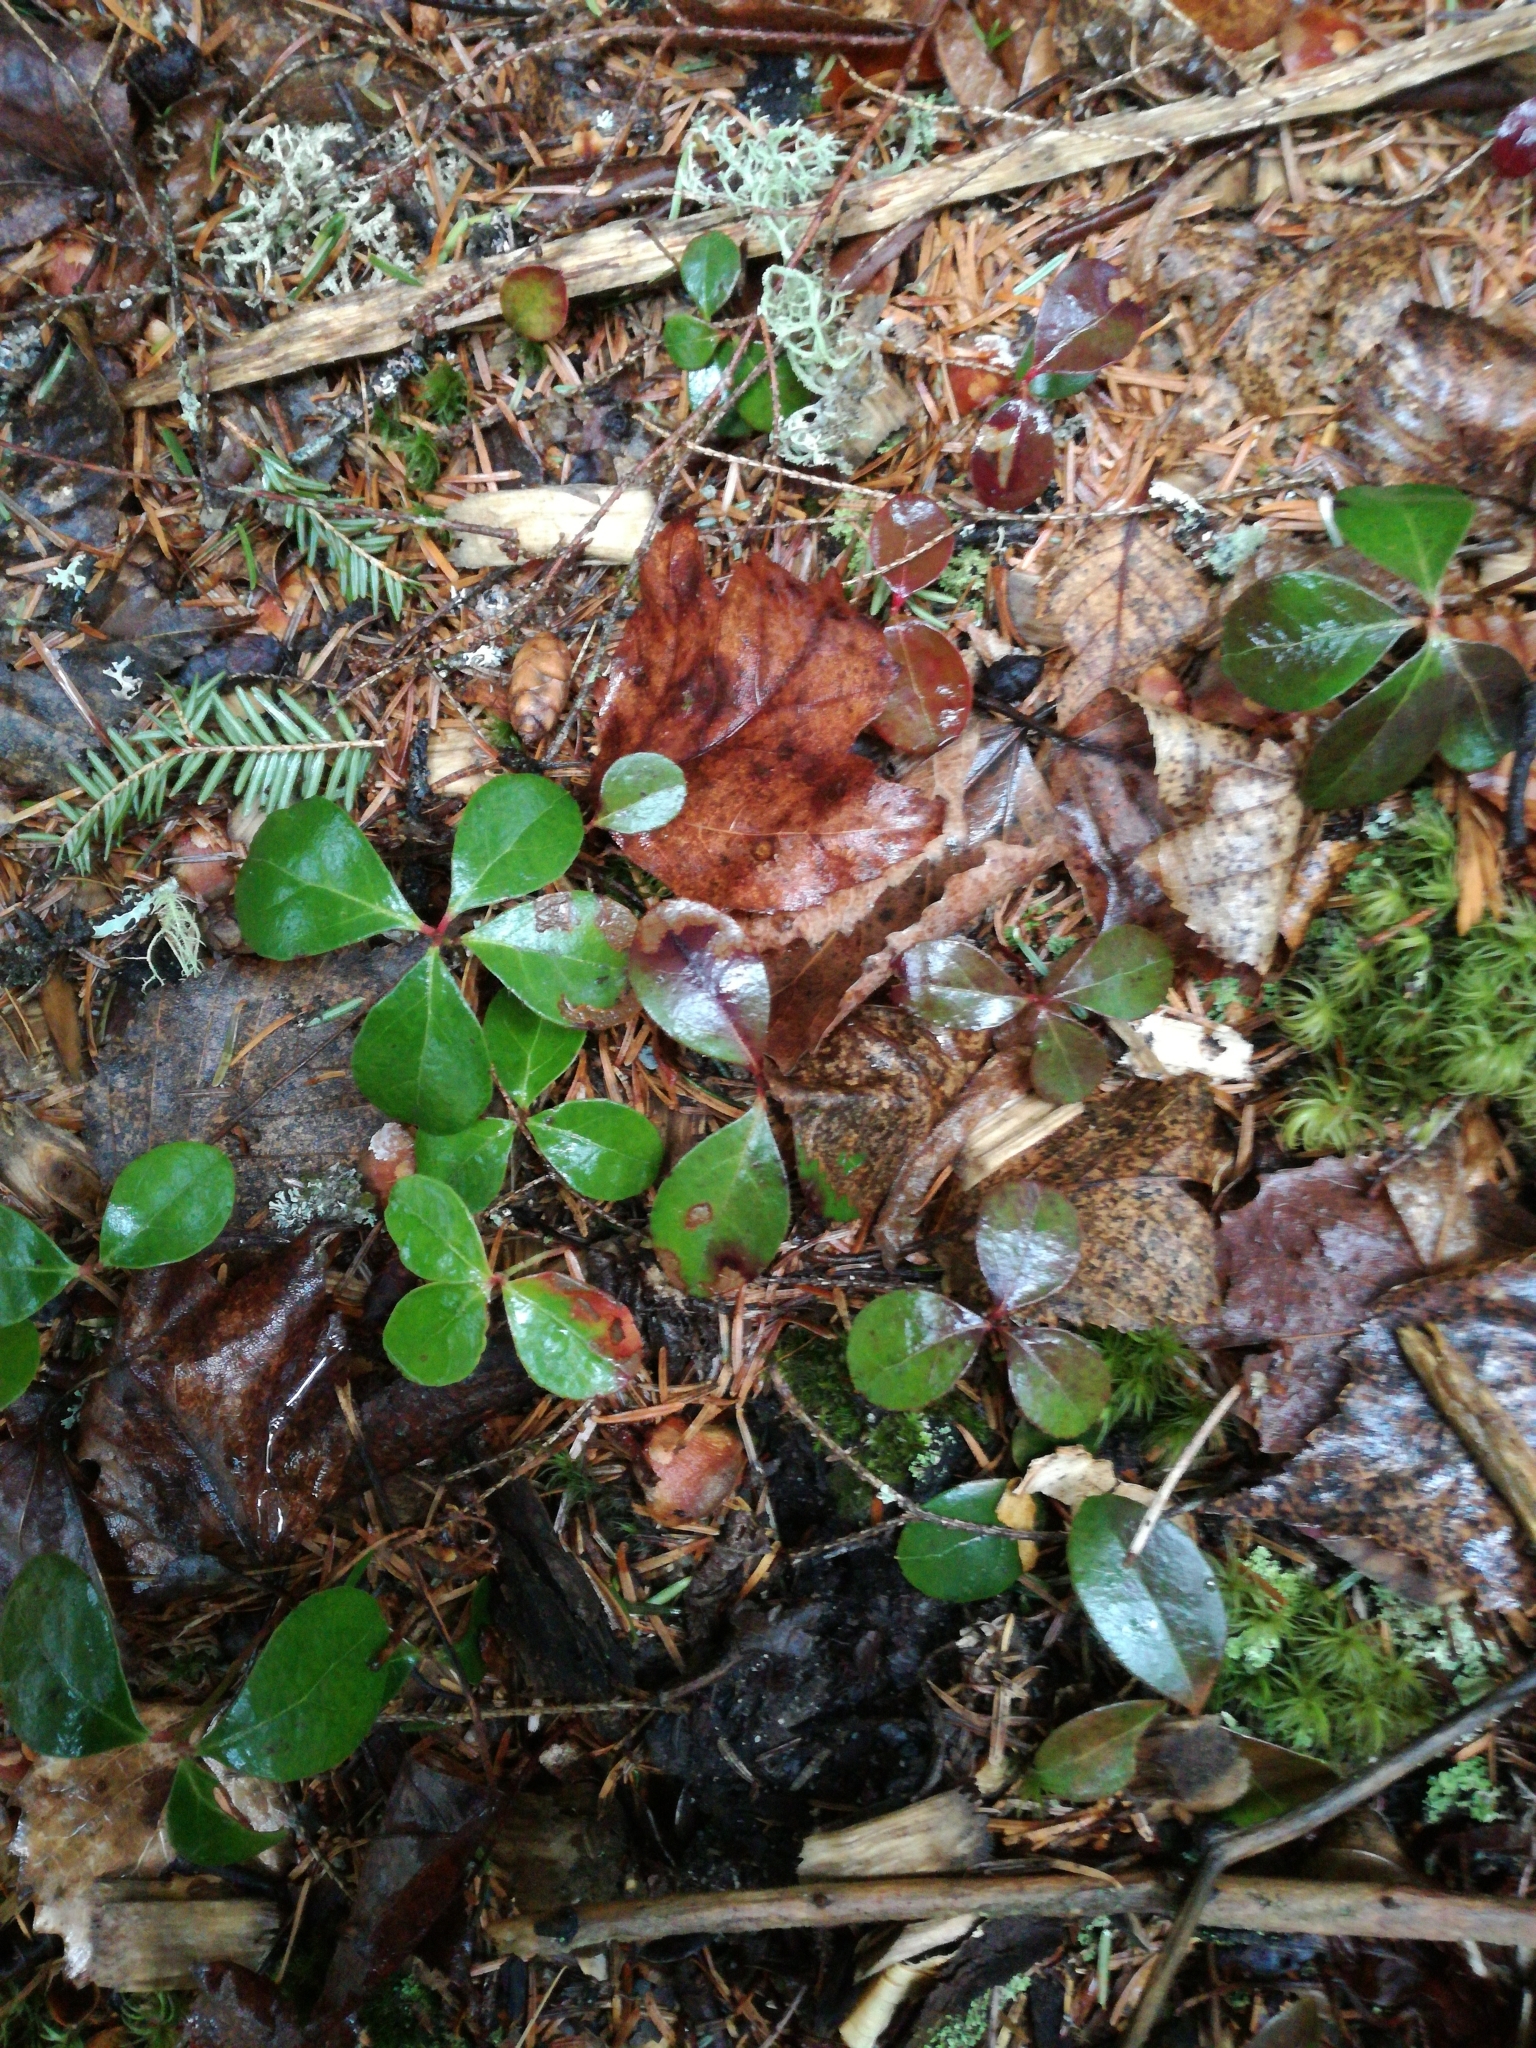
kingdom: Plantae
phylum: Tracheophyta
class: Magnoliopsida
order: Ericales
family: Ericaceae
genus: Gaultheria
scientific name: Gaultheria procumbens
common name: Checkerberry
